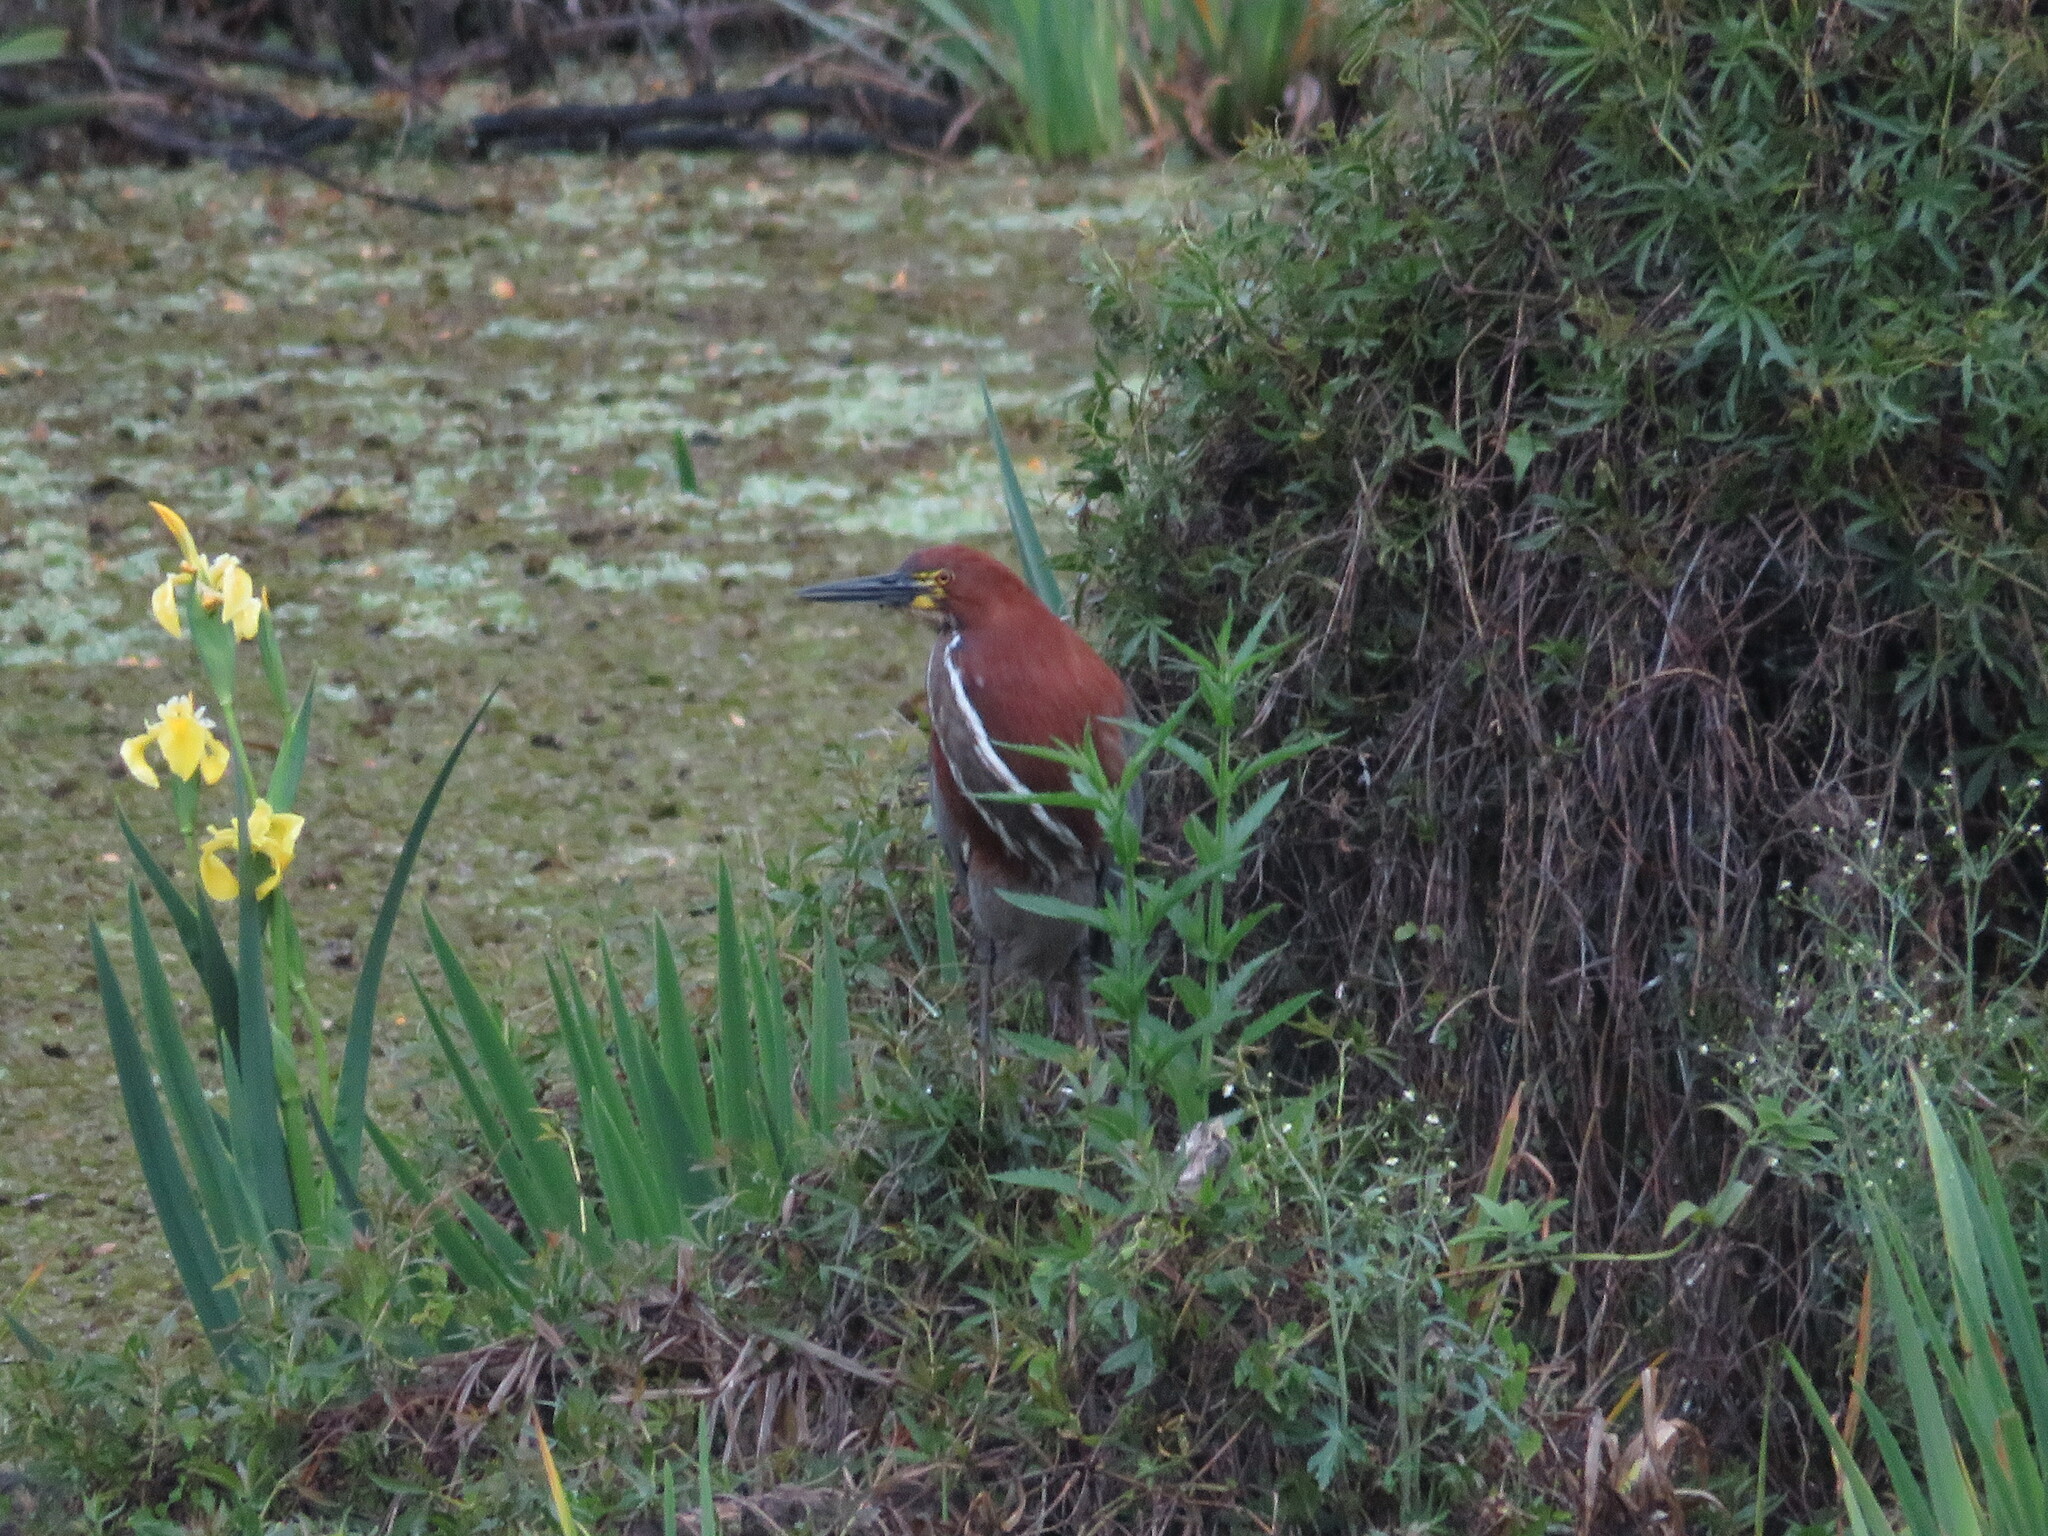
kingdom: Animalia
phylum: Chordata
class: Aves
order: Pelecaniformes
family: Ardeidae
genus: Tigrisoma
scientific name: Tigrisoma lineatum
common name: Rufescent tiger-heron
